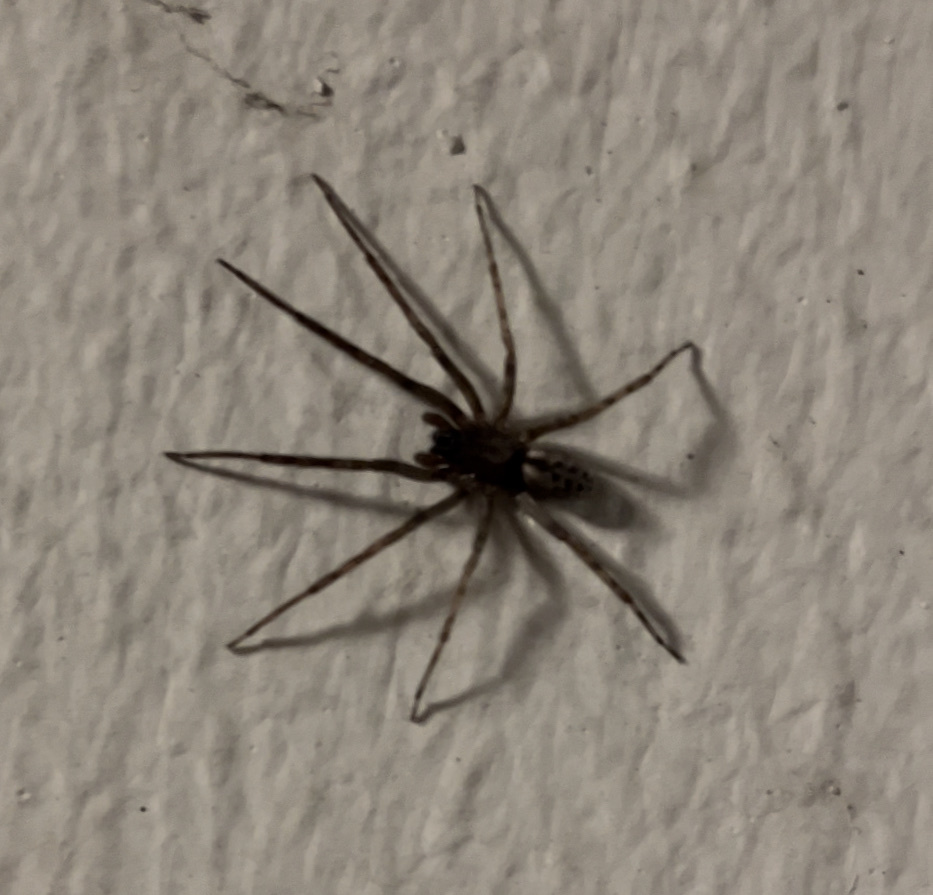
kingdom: Animalia
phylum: Arthropoda
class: Arachnida
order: Araneae
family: Segestriidae
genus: Segestria
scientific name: Segestria bavarica
